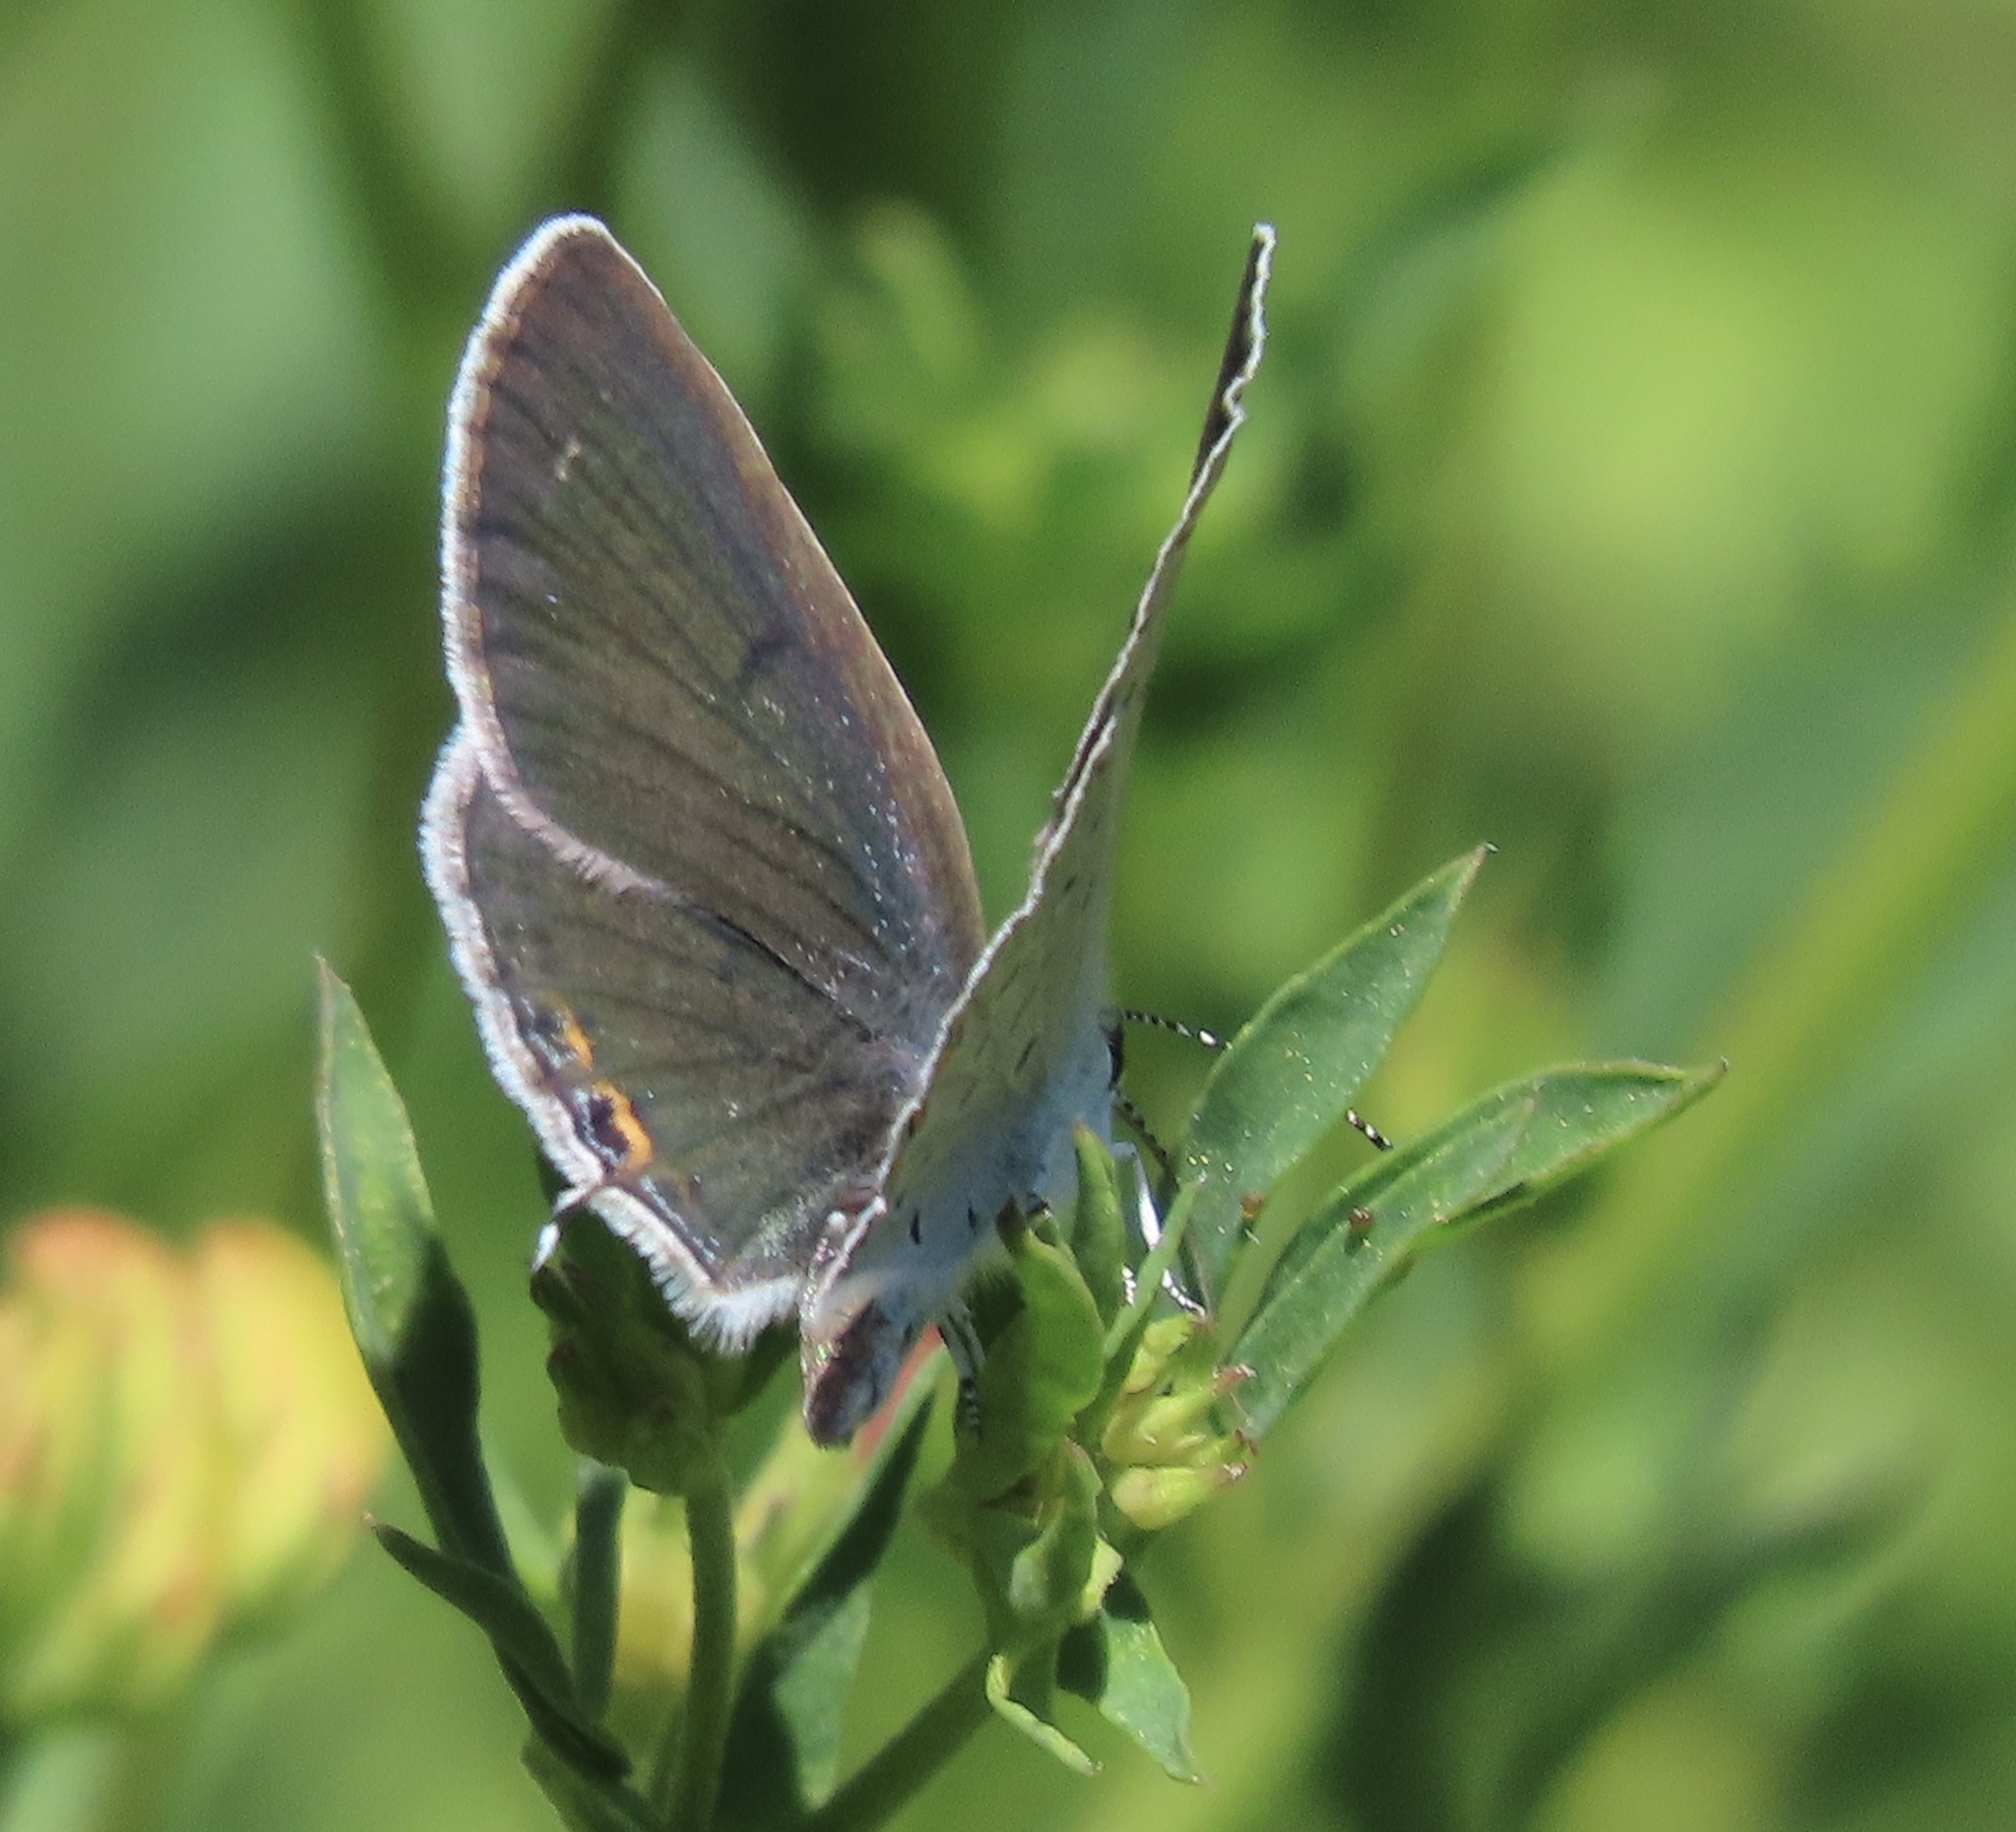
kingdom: Animalia
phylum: Arthropoda
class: Insecta
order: Lepidoptera
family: Lycaenidae
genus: Elkalyce
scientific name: Elkalyce comyntas
